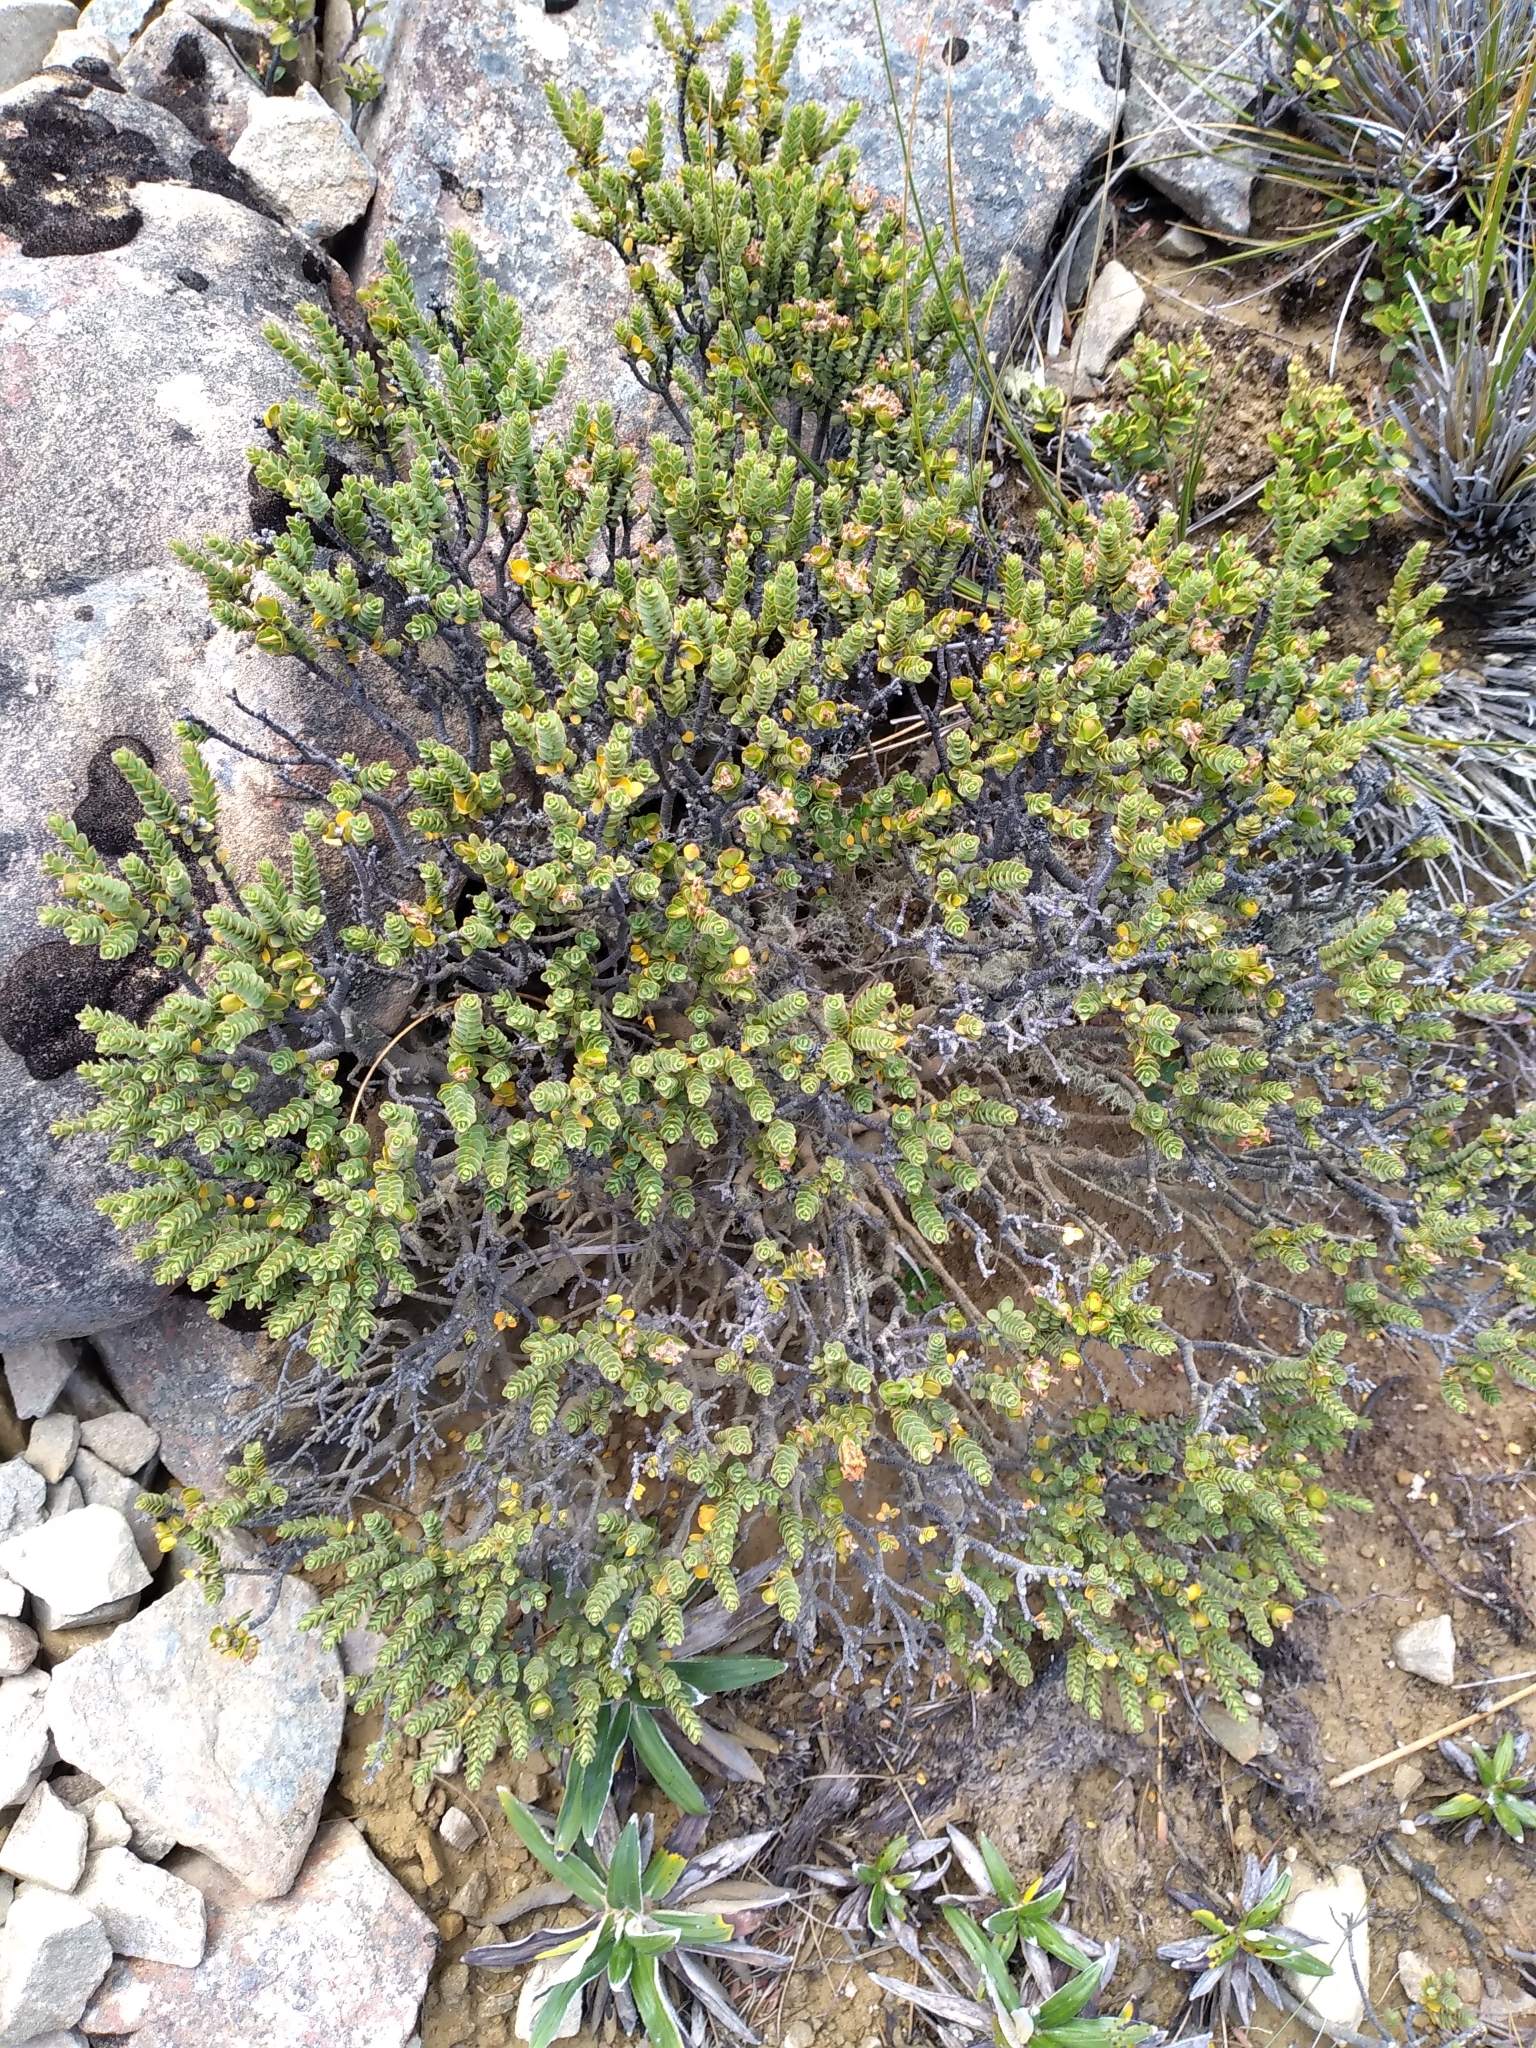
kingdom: Plantae
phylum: Tracheophyta
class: Magnoliopsida
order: Malvales
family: Thymelaeaceae
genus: Pimelea
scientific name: Pimelea traversii
